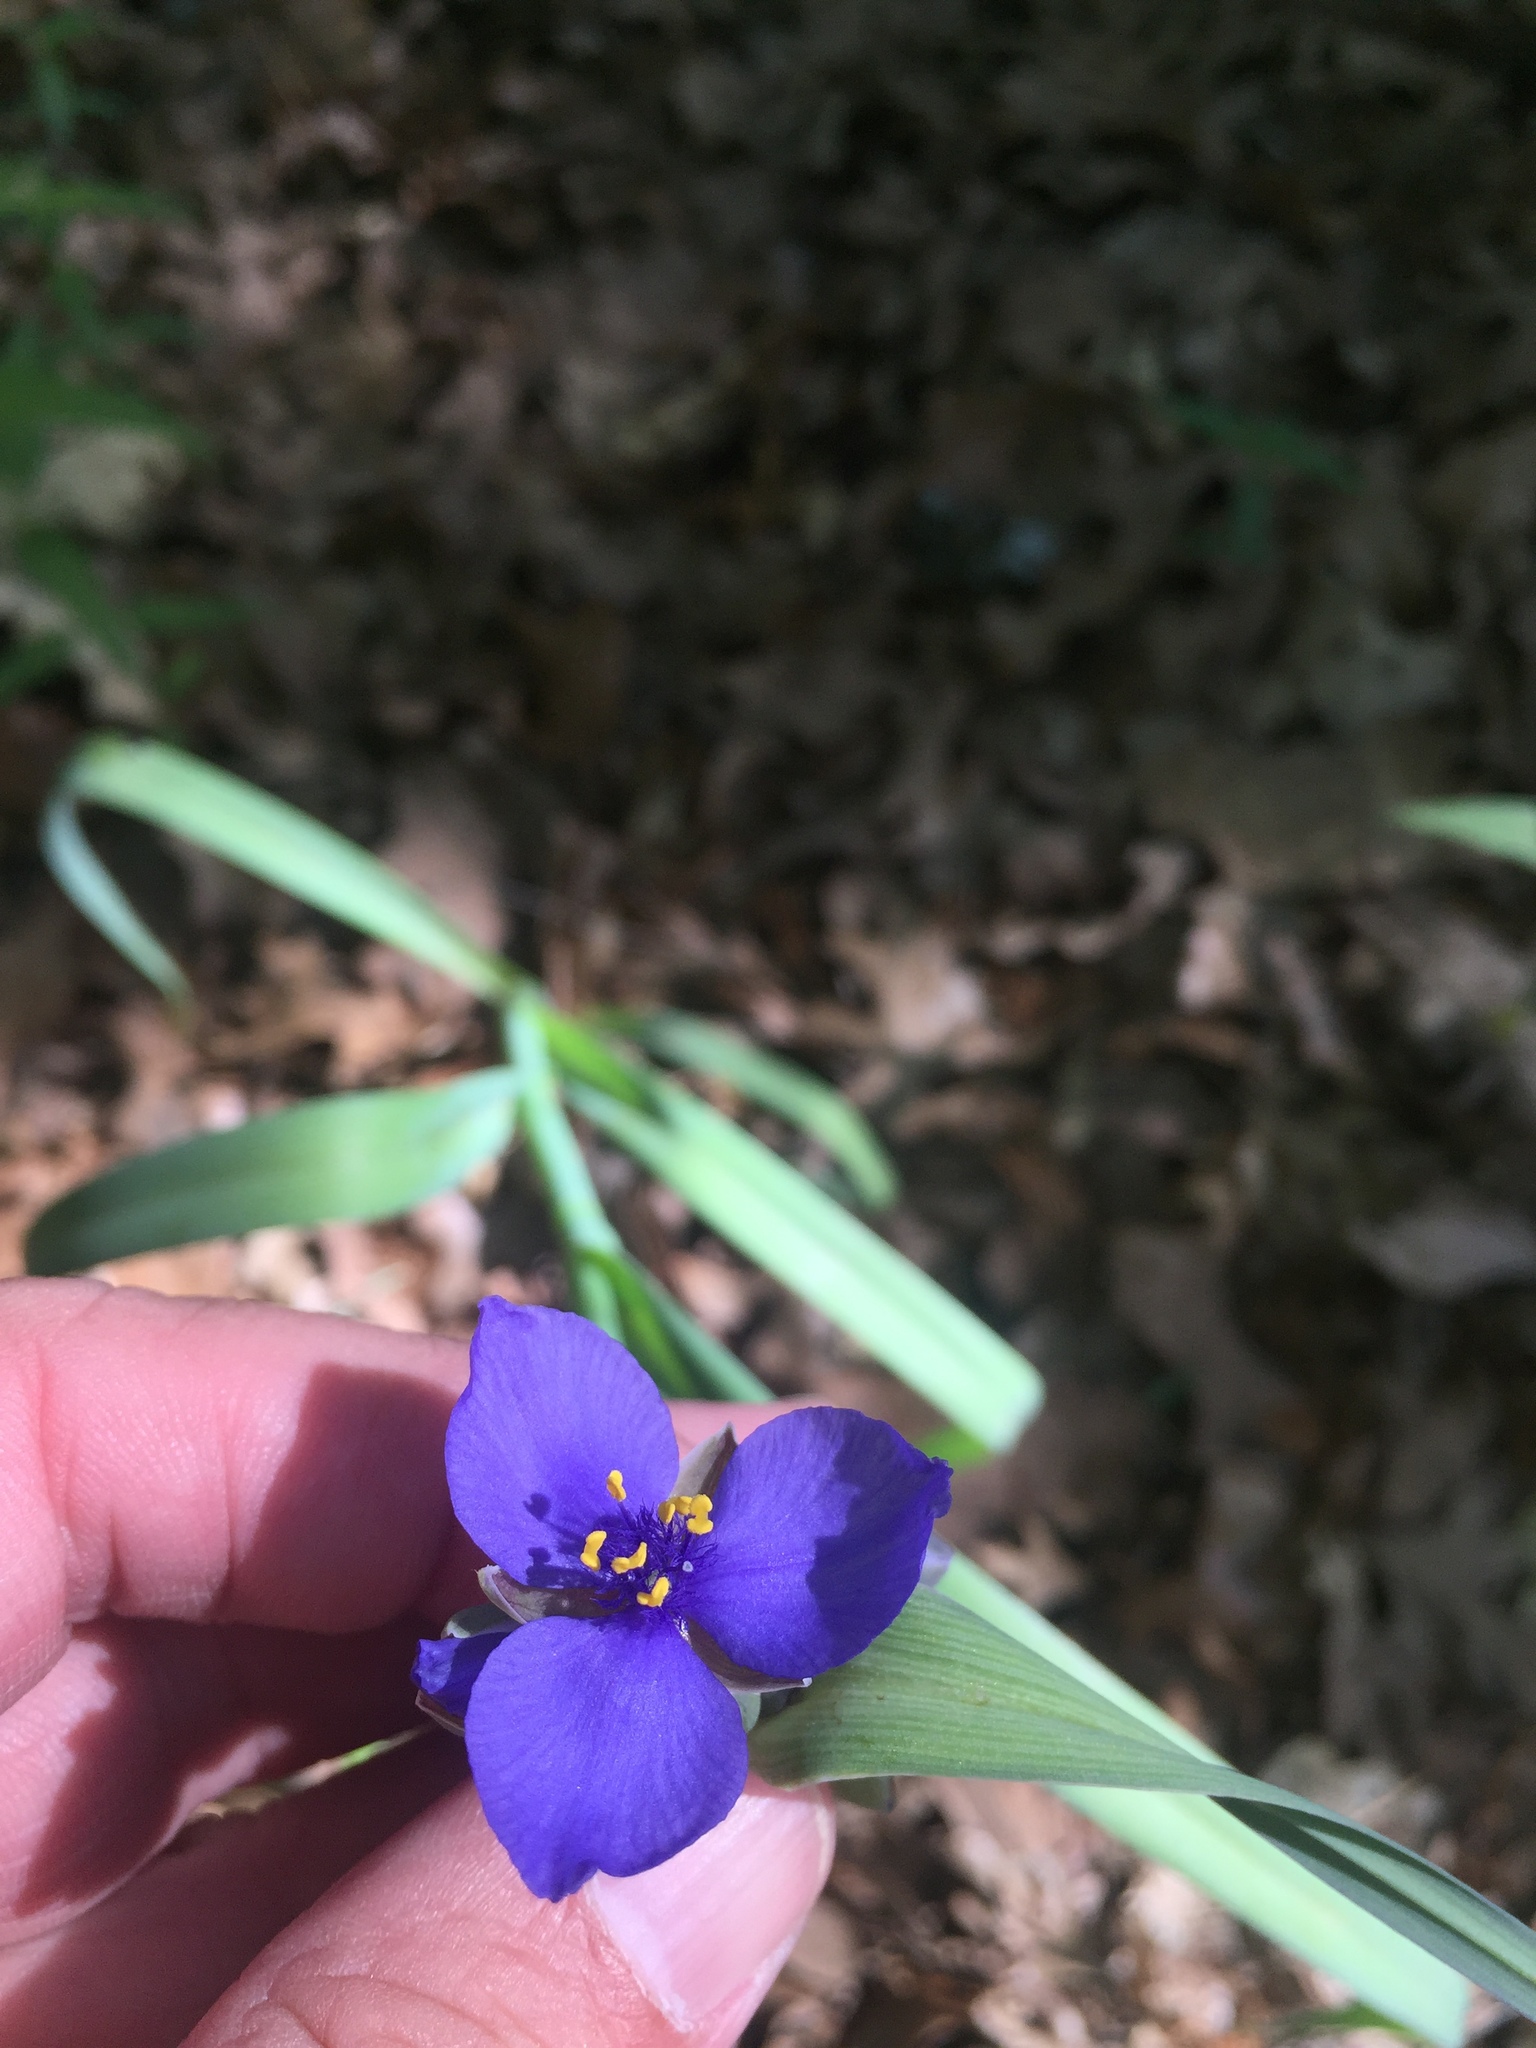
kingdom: Plantae
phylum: Tracheophyta
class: Liliopsida
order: Commelinales
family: Commelinaceae
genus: Tradescantia
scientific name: Tradescantia ohiensis
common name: Ohio spiderwort
